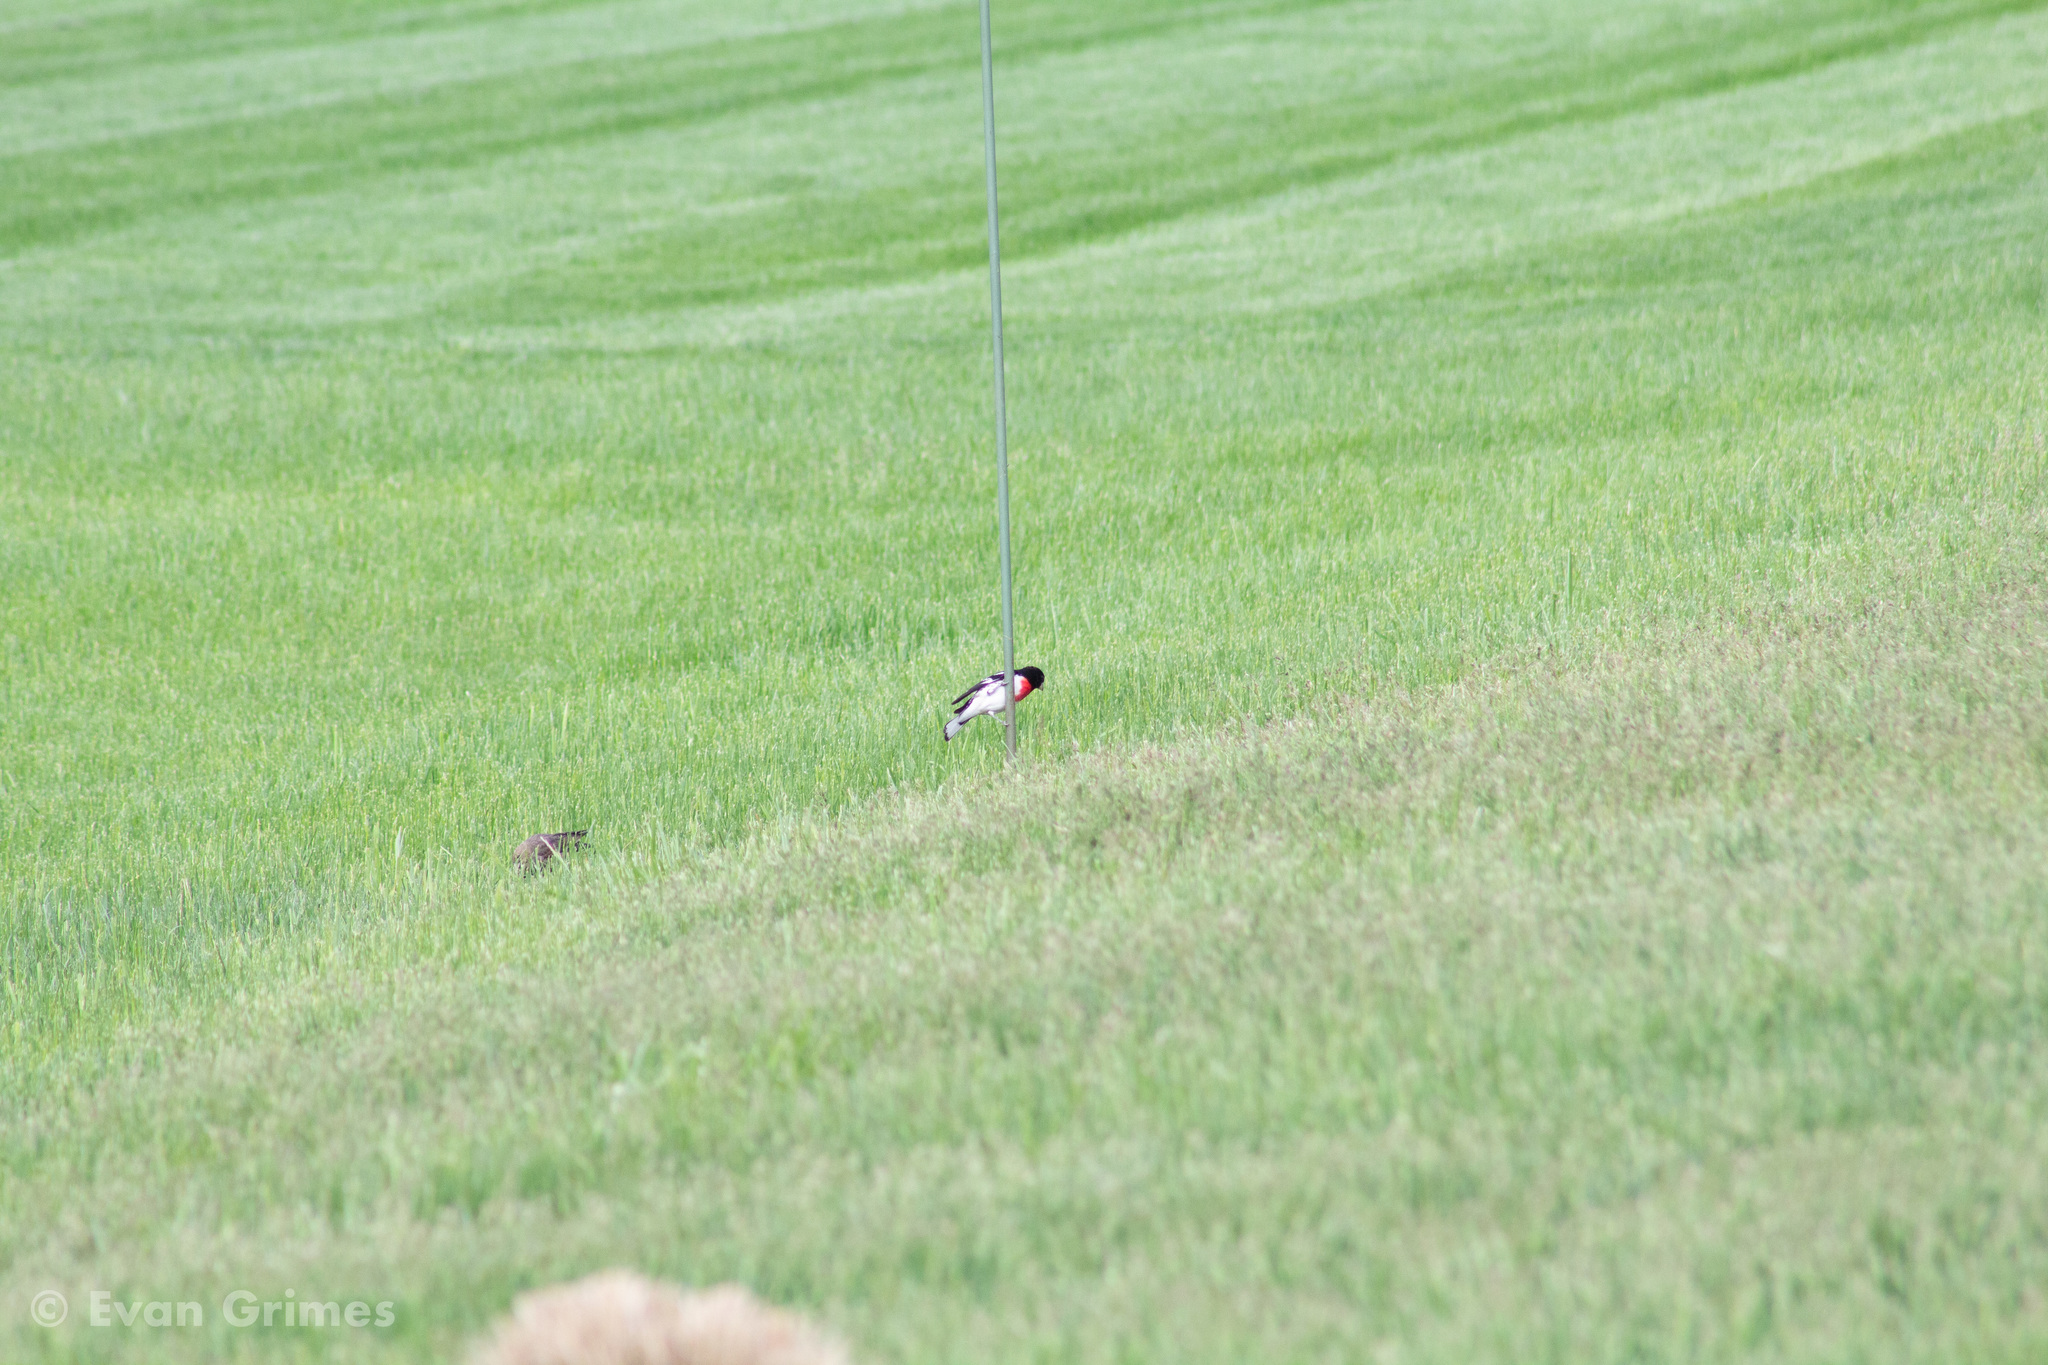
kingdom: Animalia
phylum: Chordata
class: Aves
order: Passeriformes
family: Cardinalidae
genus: Pheucticus
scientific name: Pheucticus ludovicianus
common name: Rose-breasted grosbeak
